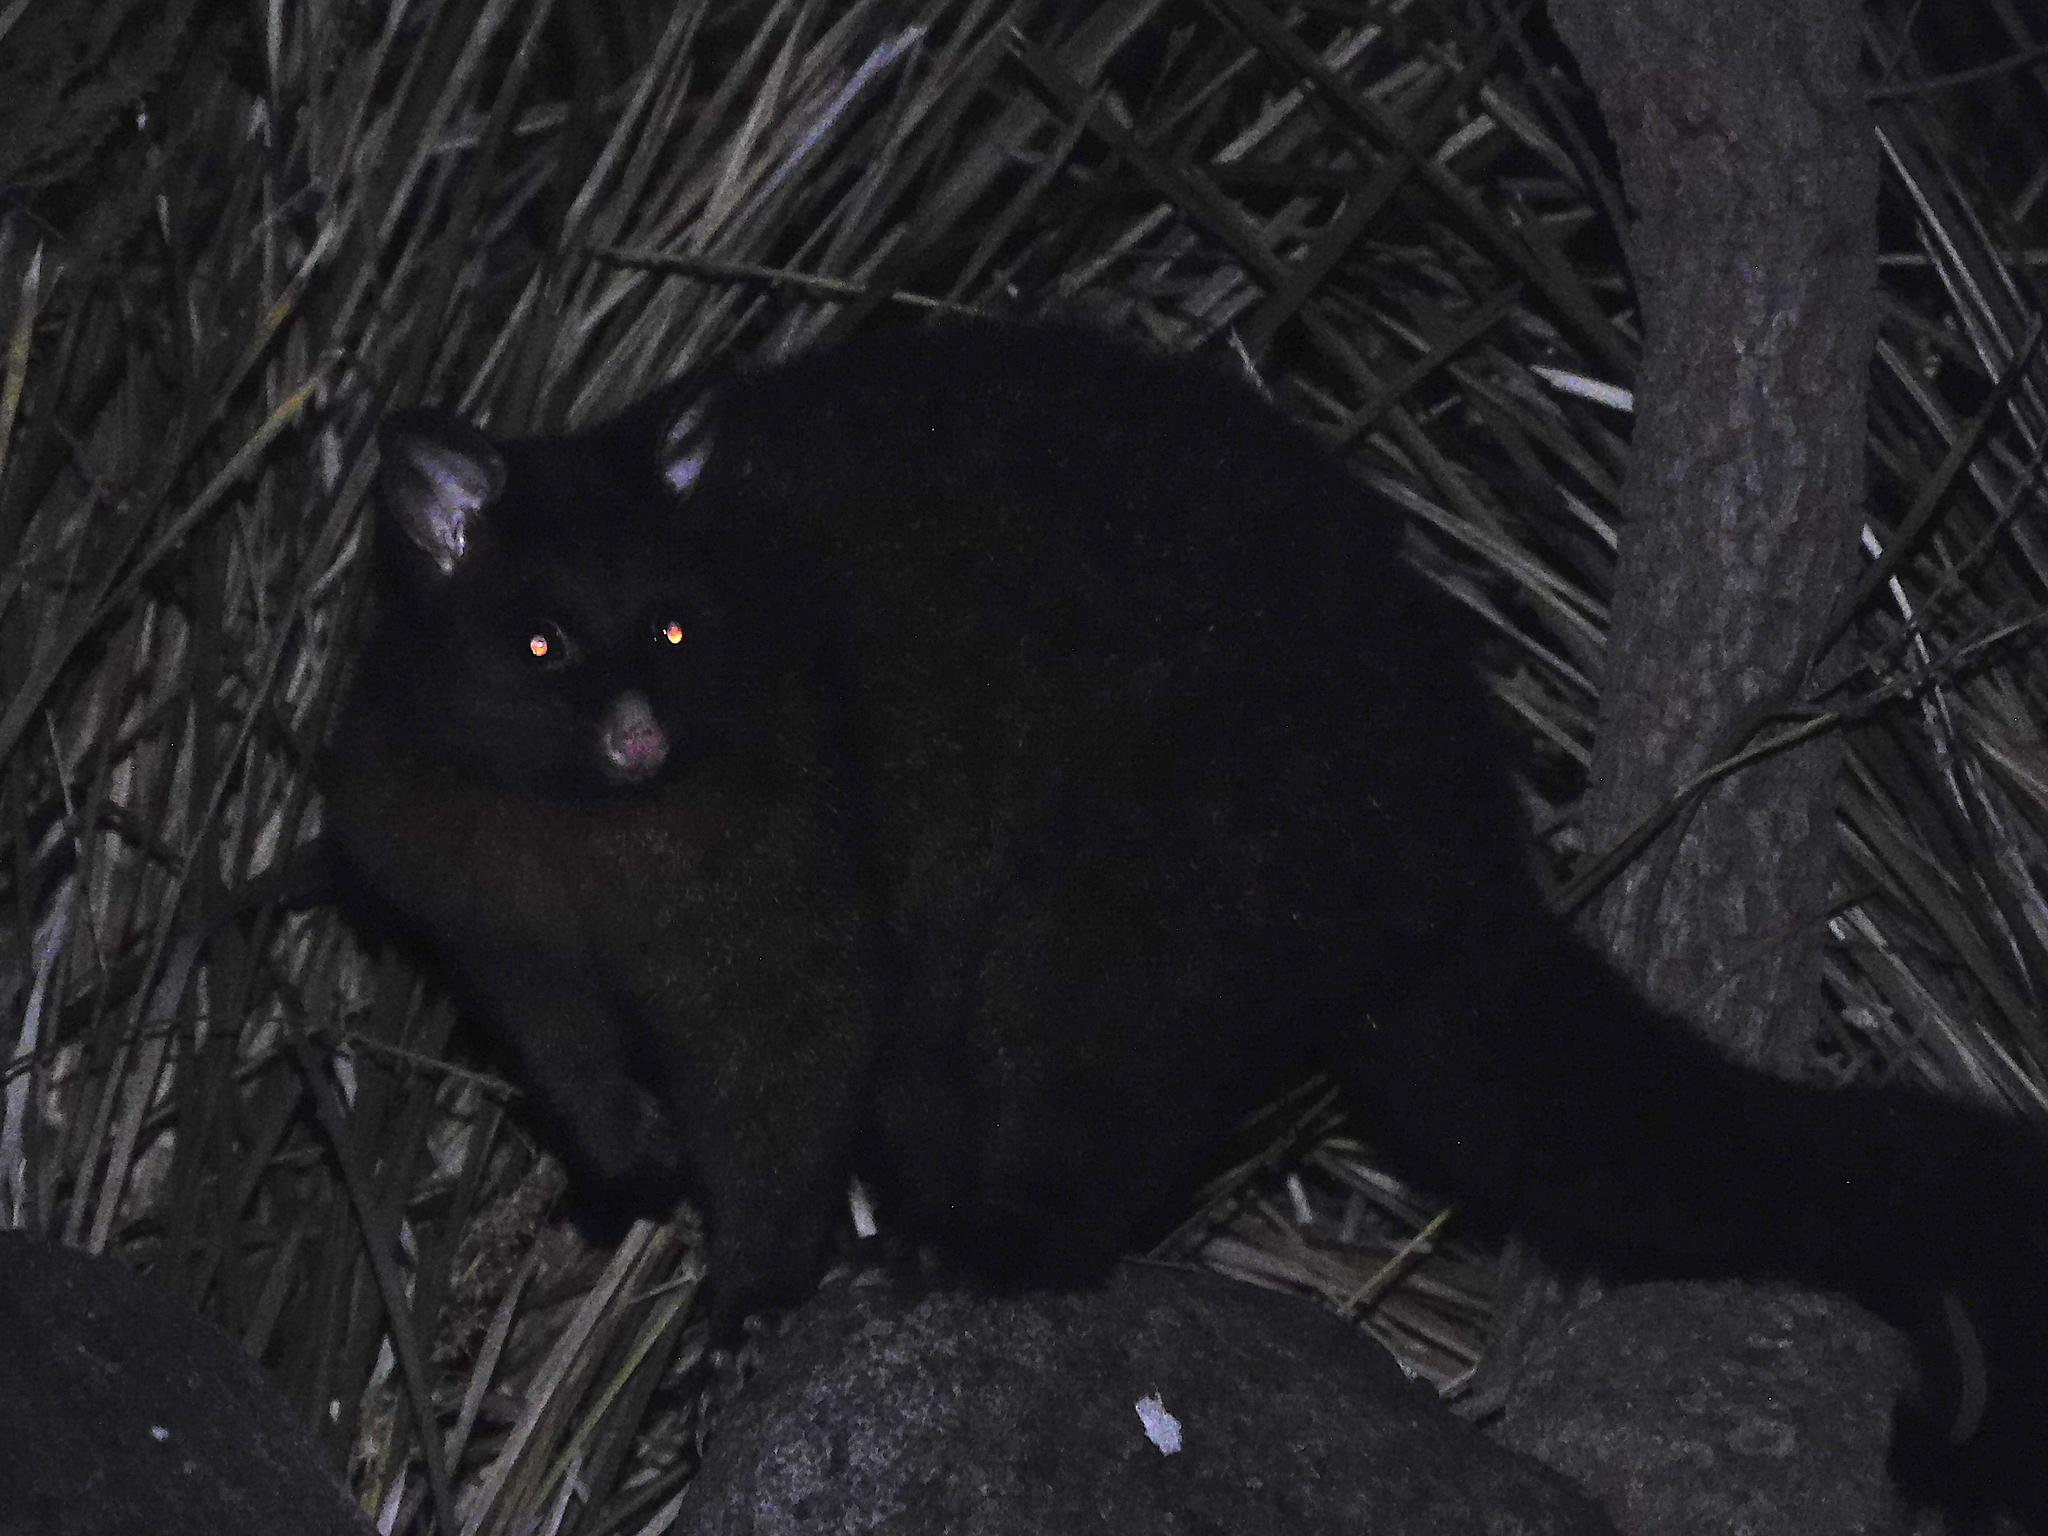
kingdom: Animalia
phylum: Chordata
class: Mammalia
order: Diprotodontia
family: Phalangeridae
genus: Trichosurus
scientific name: Trichosurus vulpecula
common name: Common brushtail
